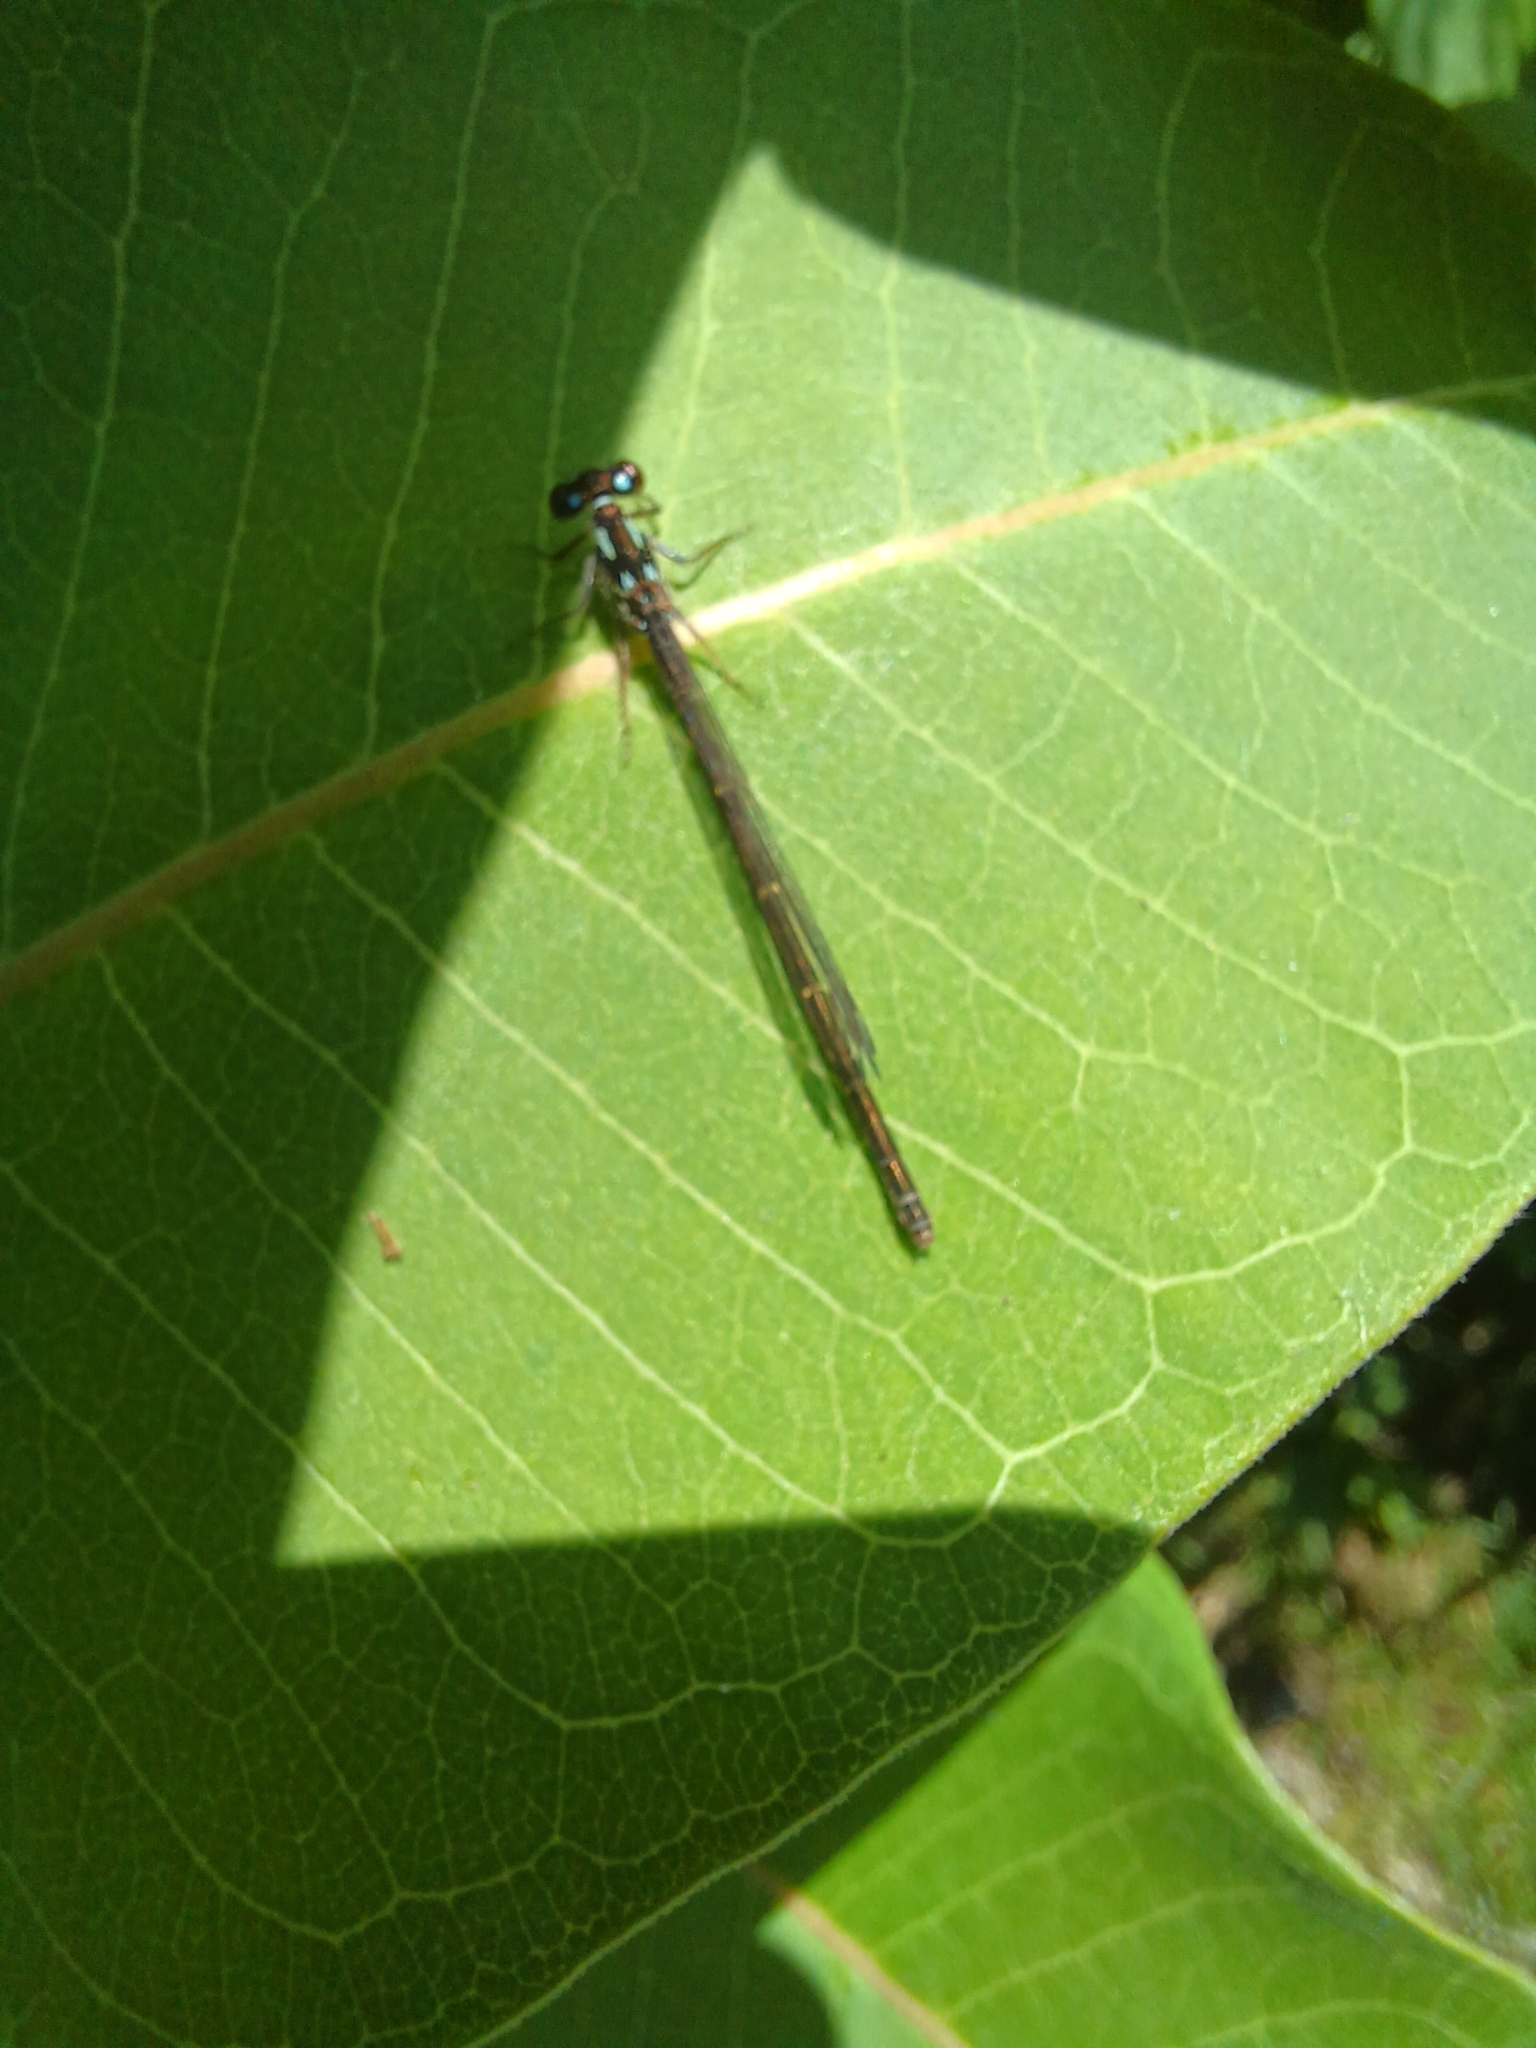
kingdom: Animalia
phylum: Arthropoda
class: Insecta
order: Odonata
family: Coenagrionidae
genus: Ischnura
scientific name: Ischnura posita
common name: Fragile forktail
